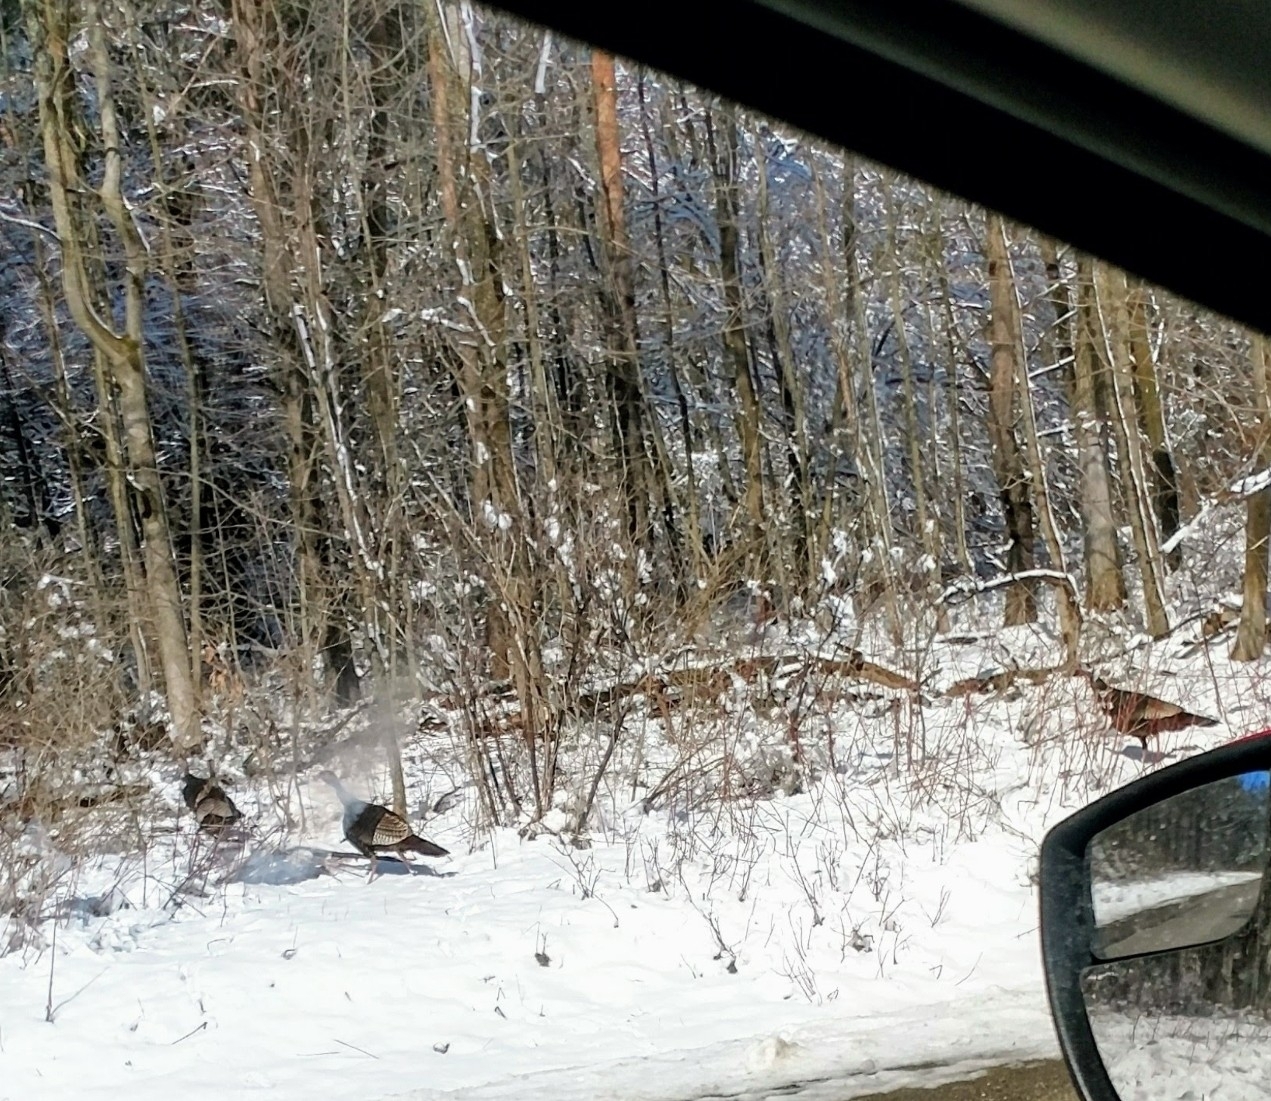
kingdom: Animalia
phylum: Chordata
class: Aves
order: Galliformes
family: Phasianidae
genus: Meleagris
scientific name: Meleagris gallopavo
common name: Wild turkey
